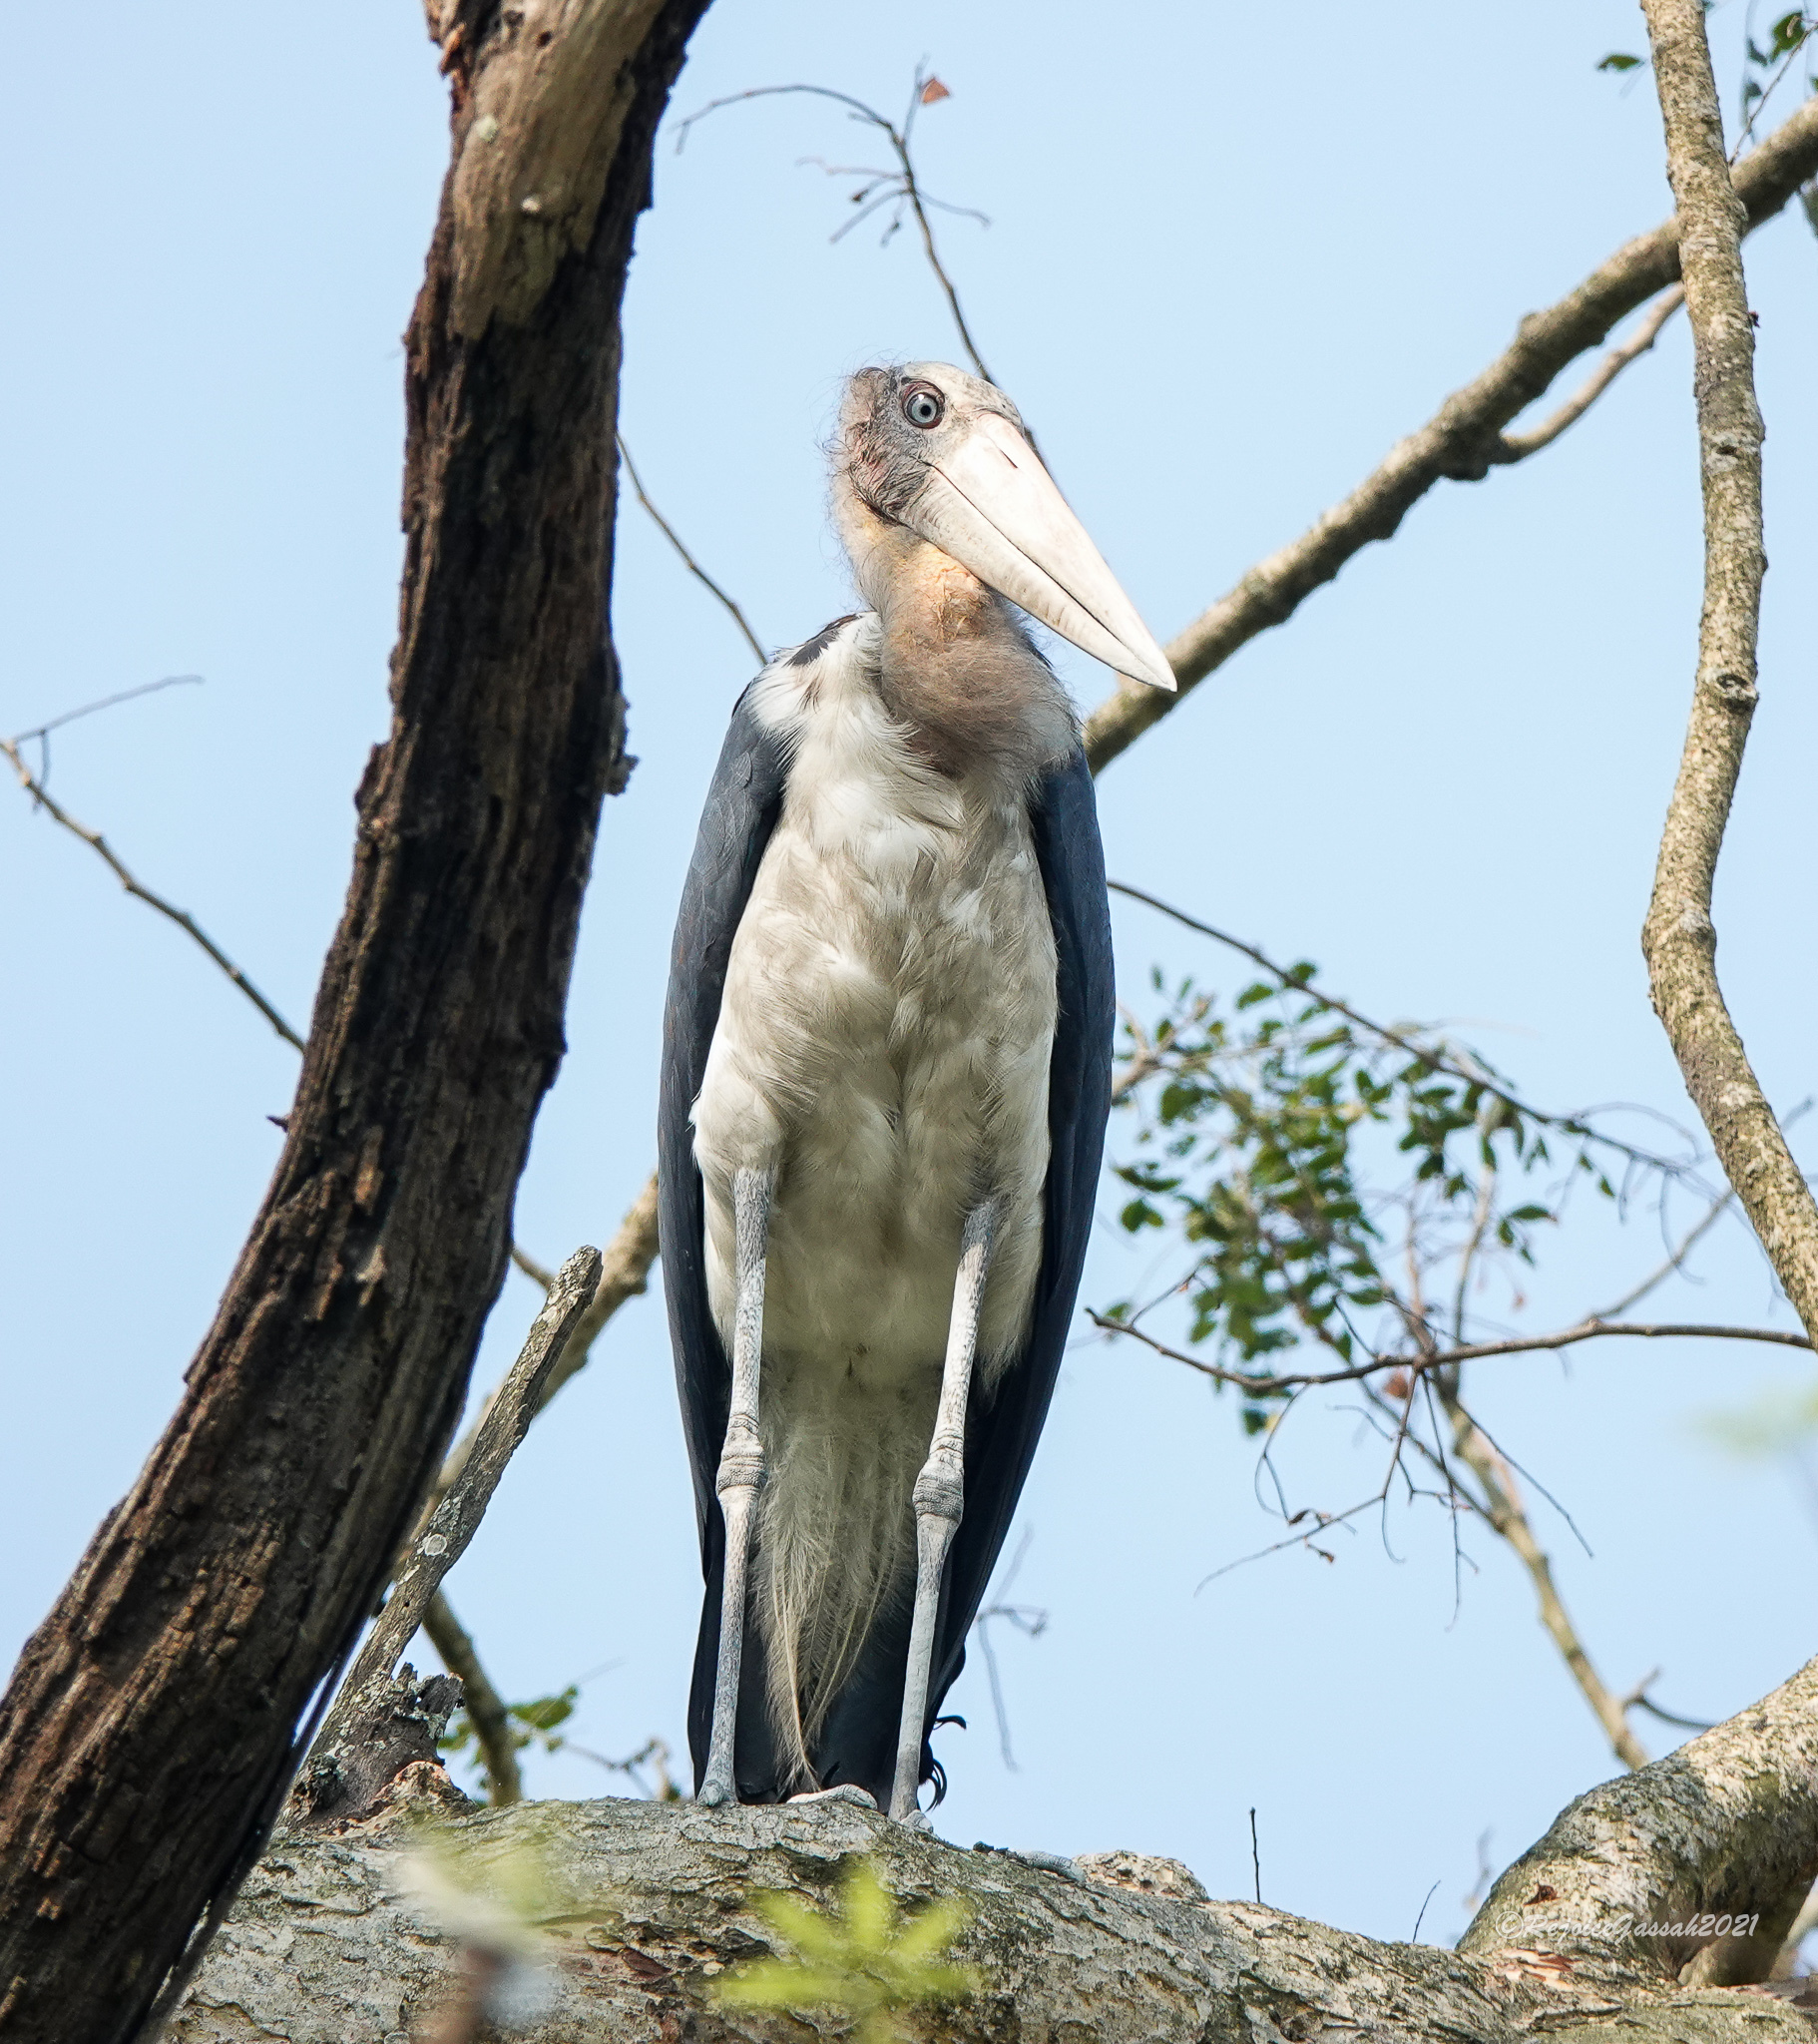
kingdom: Animalia
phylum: Chordata
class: Aves
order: Ciconiiformes
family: Ciconiidae
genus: Leptoptilos
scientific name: Leptoptilos javanicus
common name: Lesser adjutant
